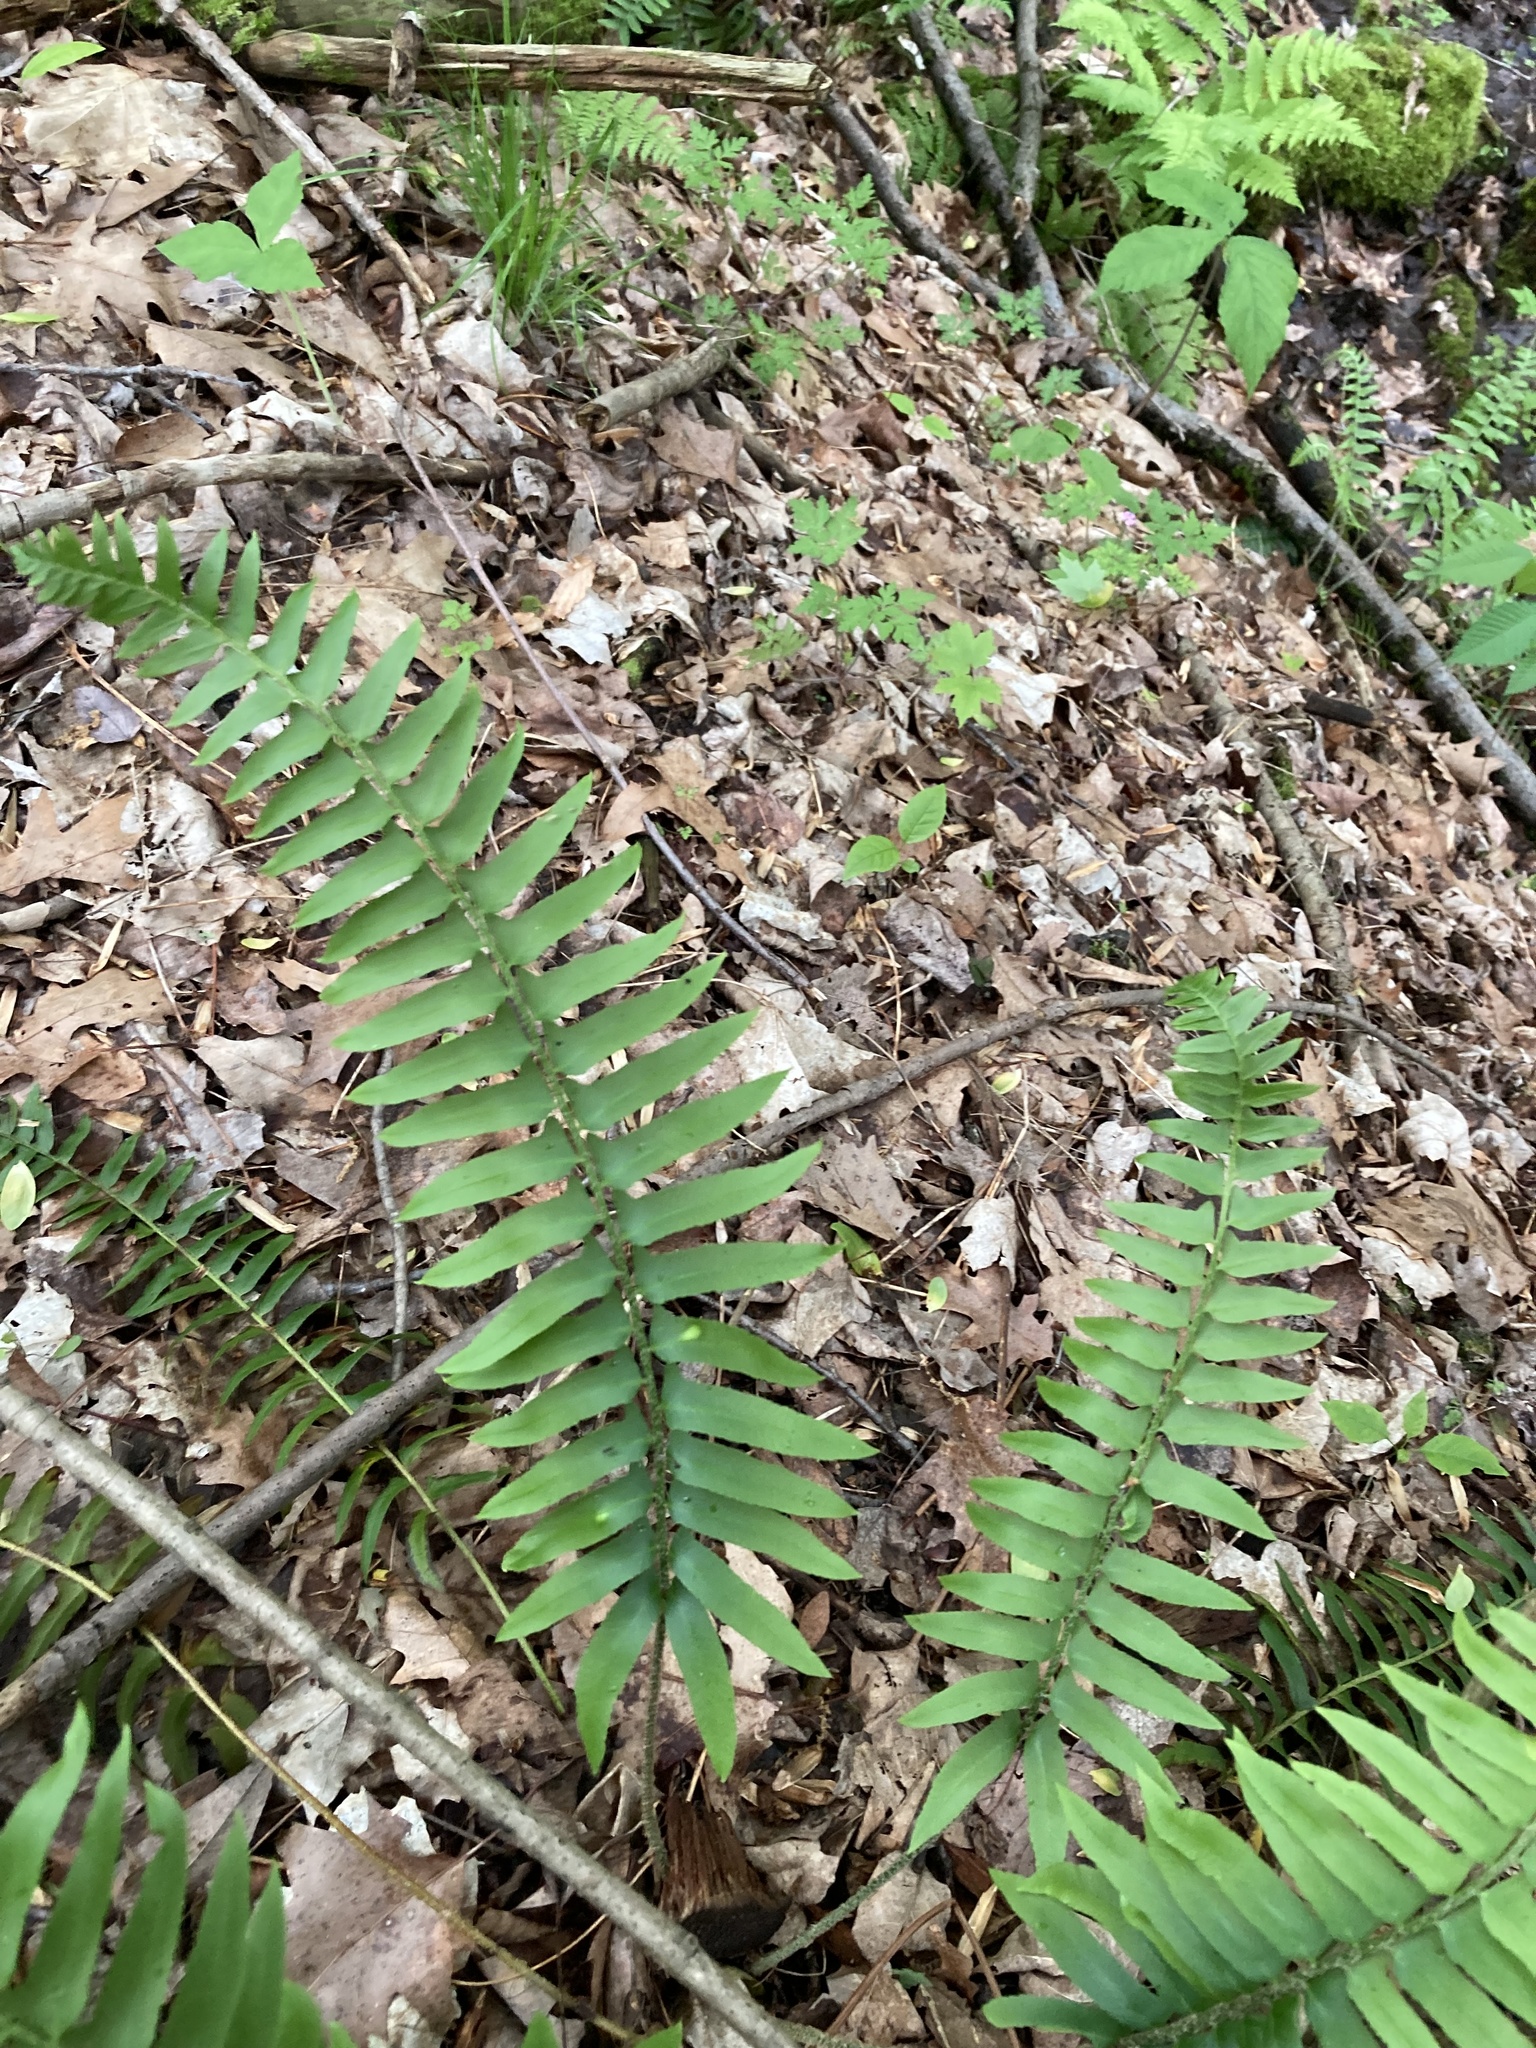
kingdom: Plantae
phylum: Tracheophyta
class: Polypodiopsida
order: Polypodiales
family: Dryopteridaceae
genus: Polystichum
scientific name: Polystichum acrostichoides
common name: Christmas fern
